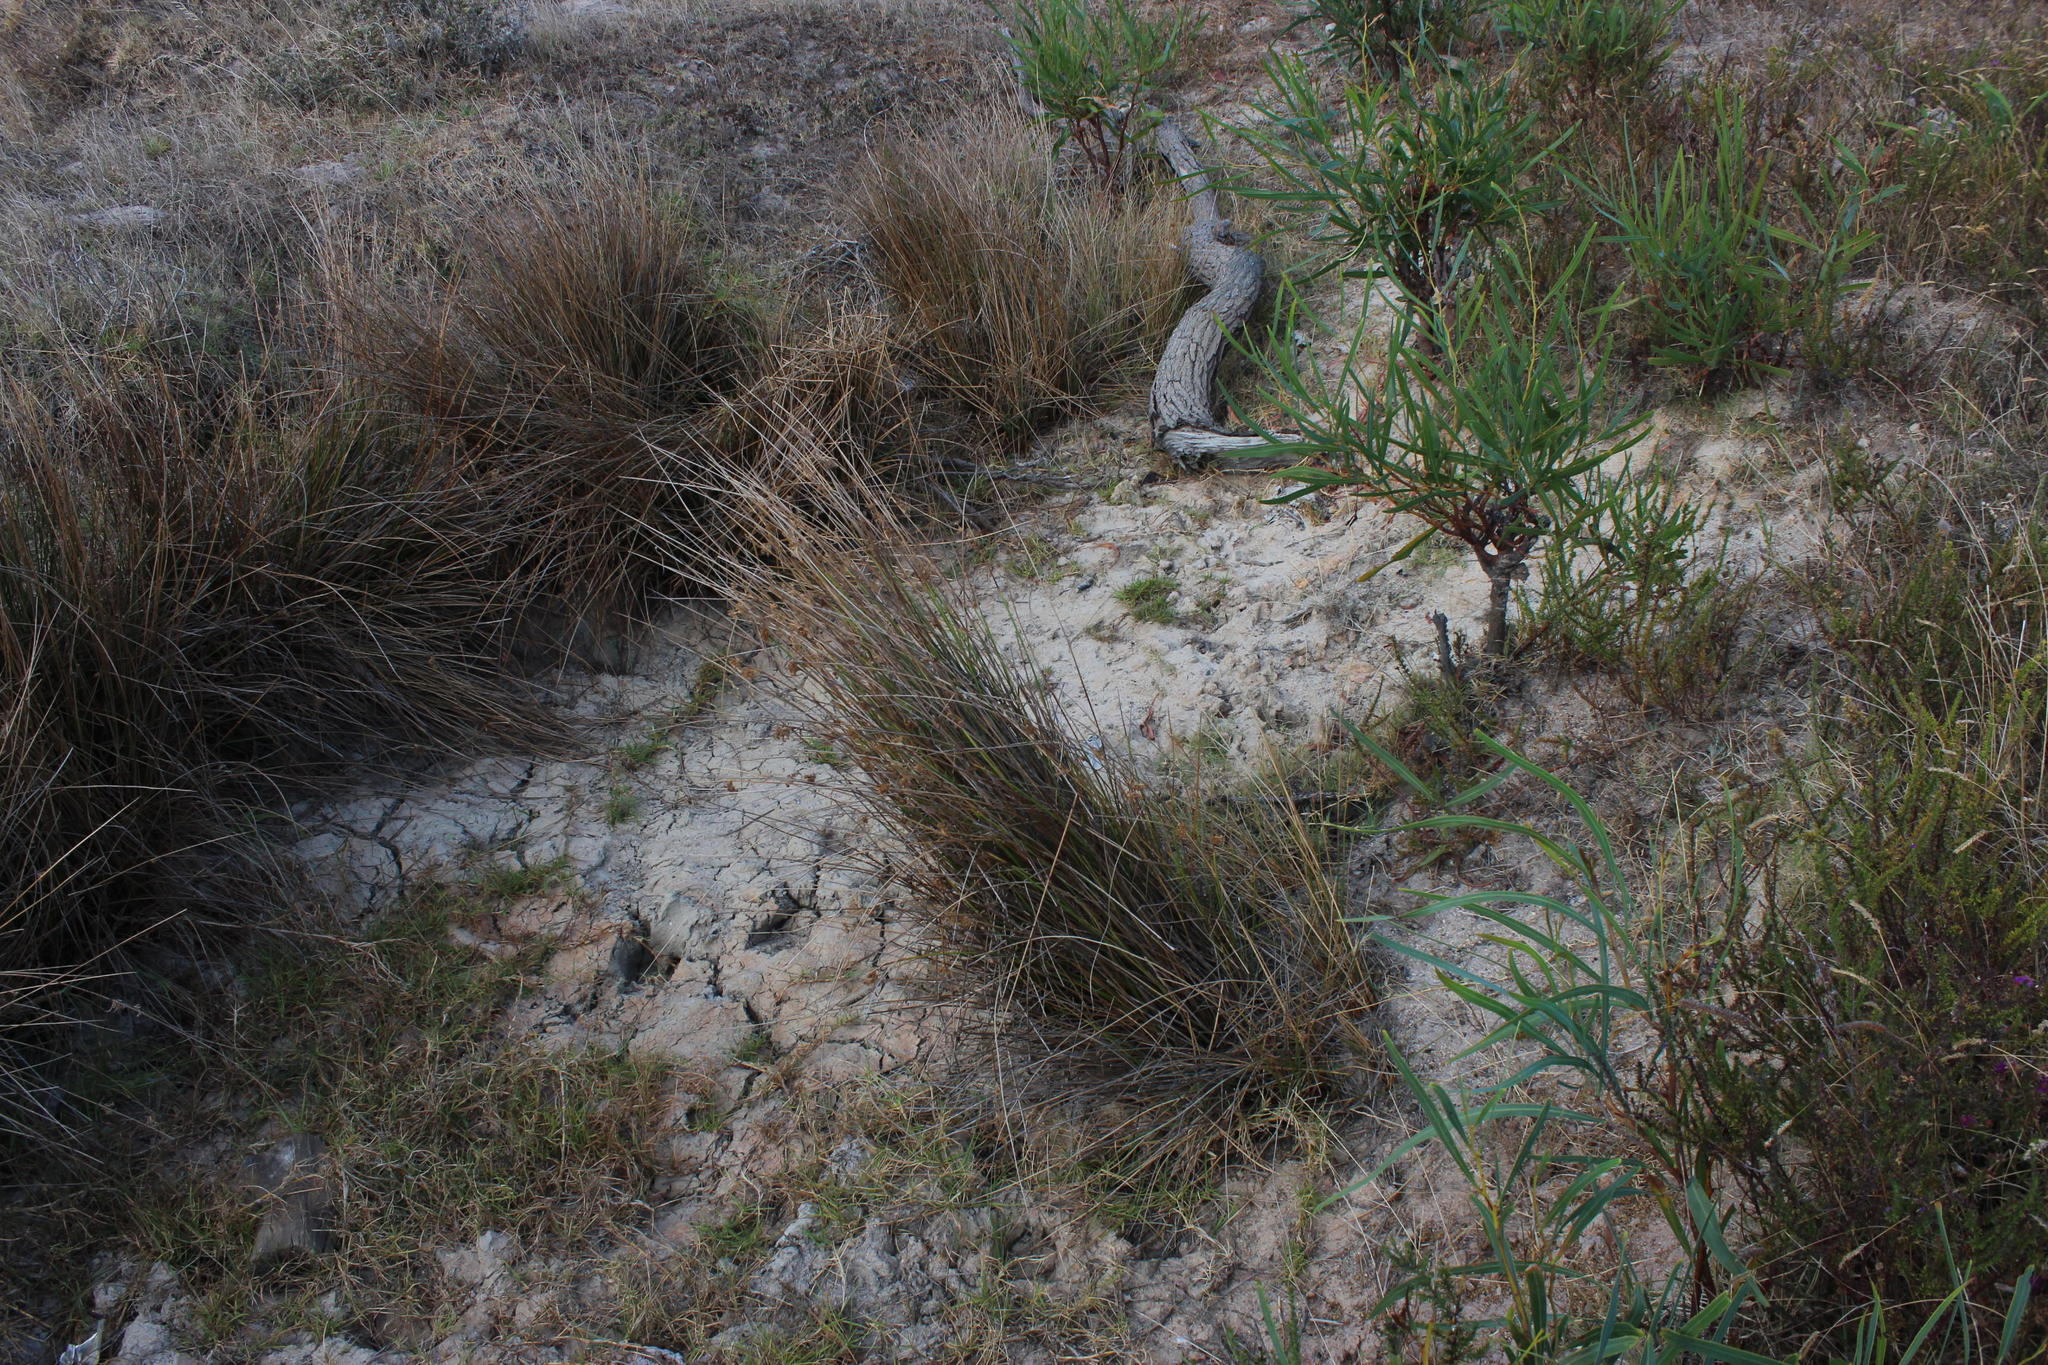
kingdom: Plantae
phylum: Tracheophyta
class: Liliopsida
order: Poales
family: Juncaceae
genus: Juncus
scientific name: Juncus kraussii
